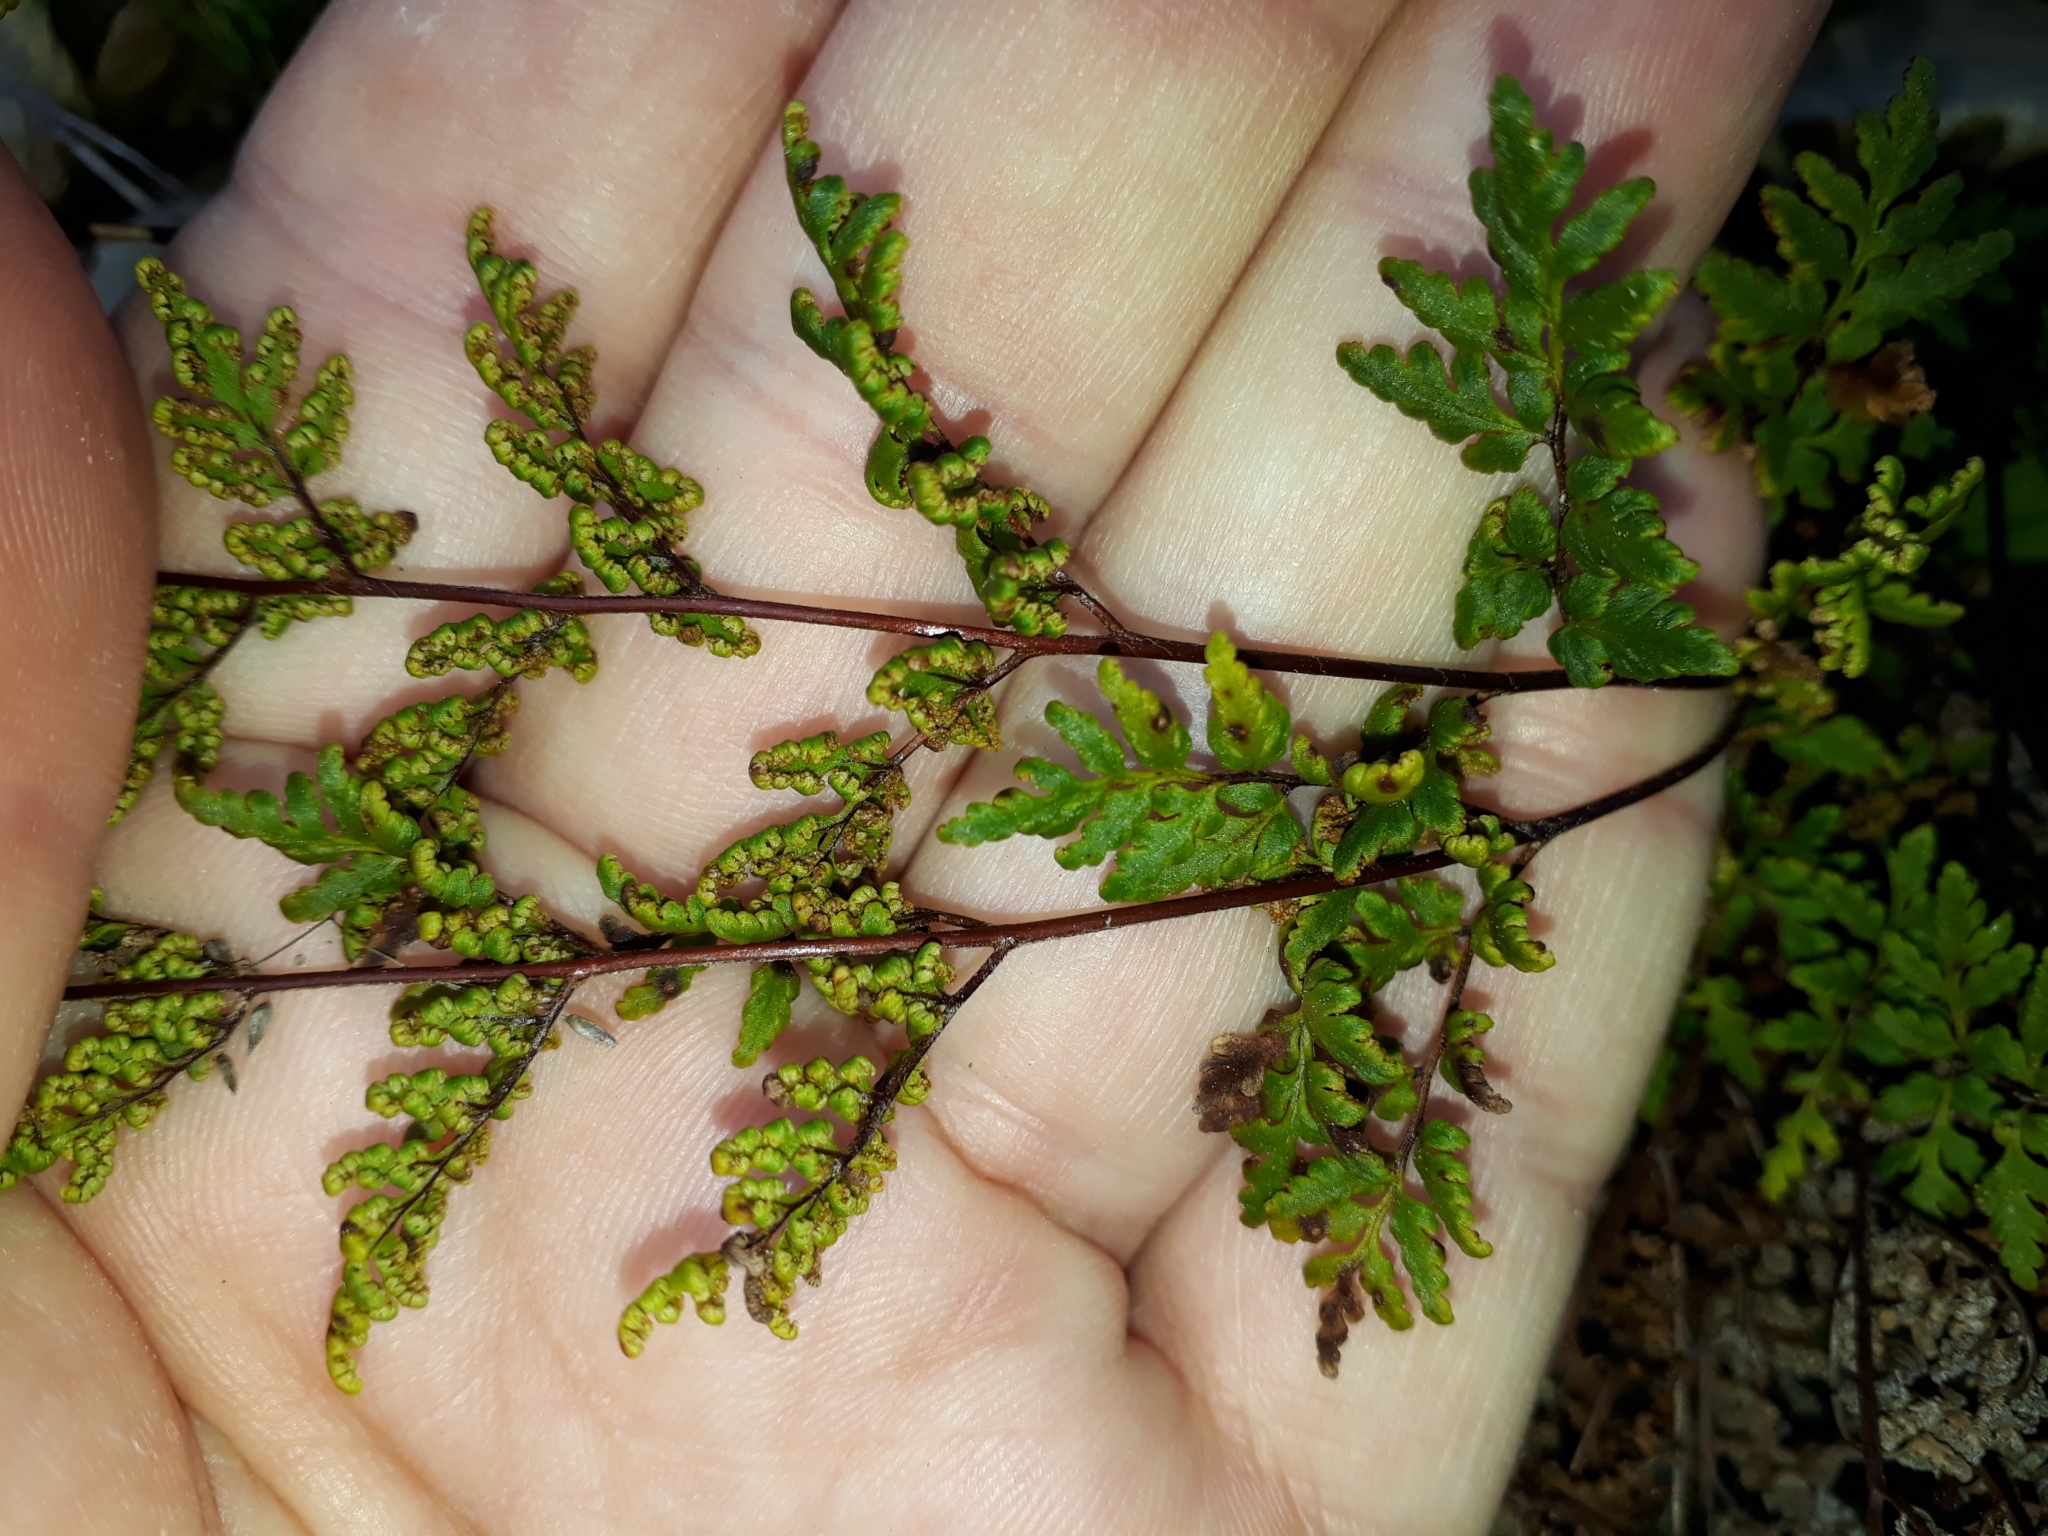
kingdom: Plantae
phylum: Tracheophyta
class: Polypodiopsida
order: Polypodiales
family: Pteridaceae
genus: Cheilanthes
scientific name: Cheilanthes sieberi
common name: Mulga fern
